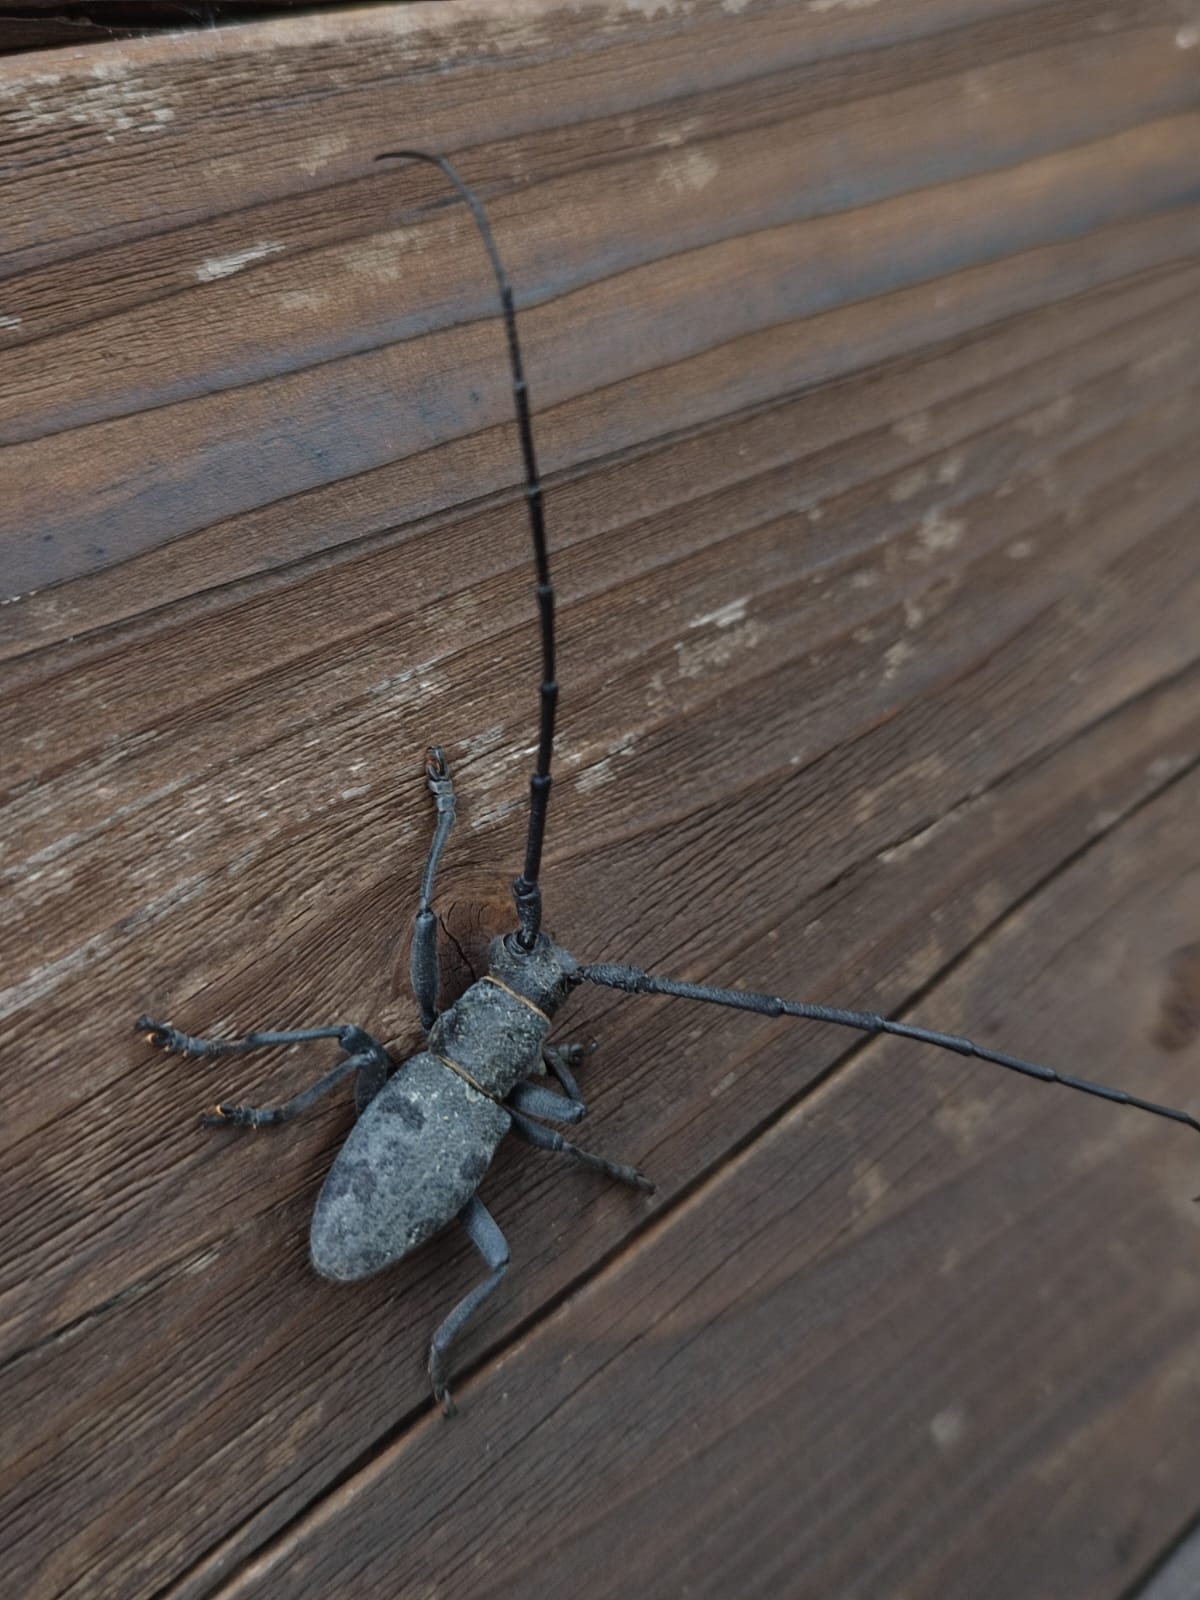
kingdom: Animalia
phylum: Arthropoda
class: Insecta
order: Coleoptera
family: Cerambycidae
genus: Morimus
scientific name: Morimus asper
